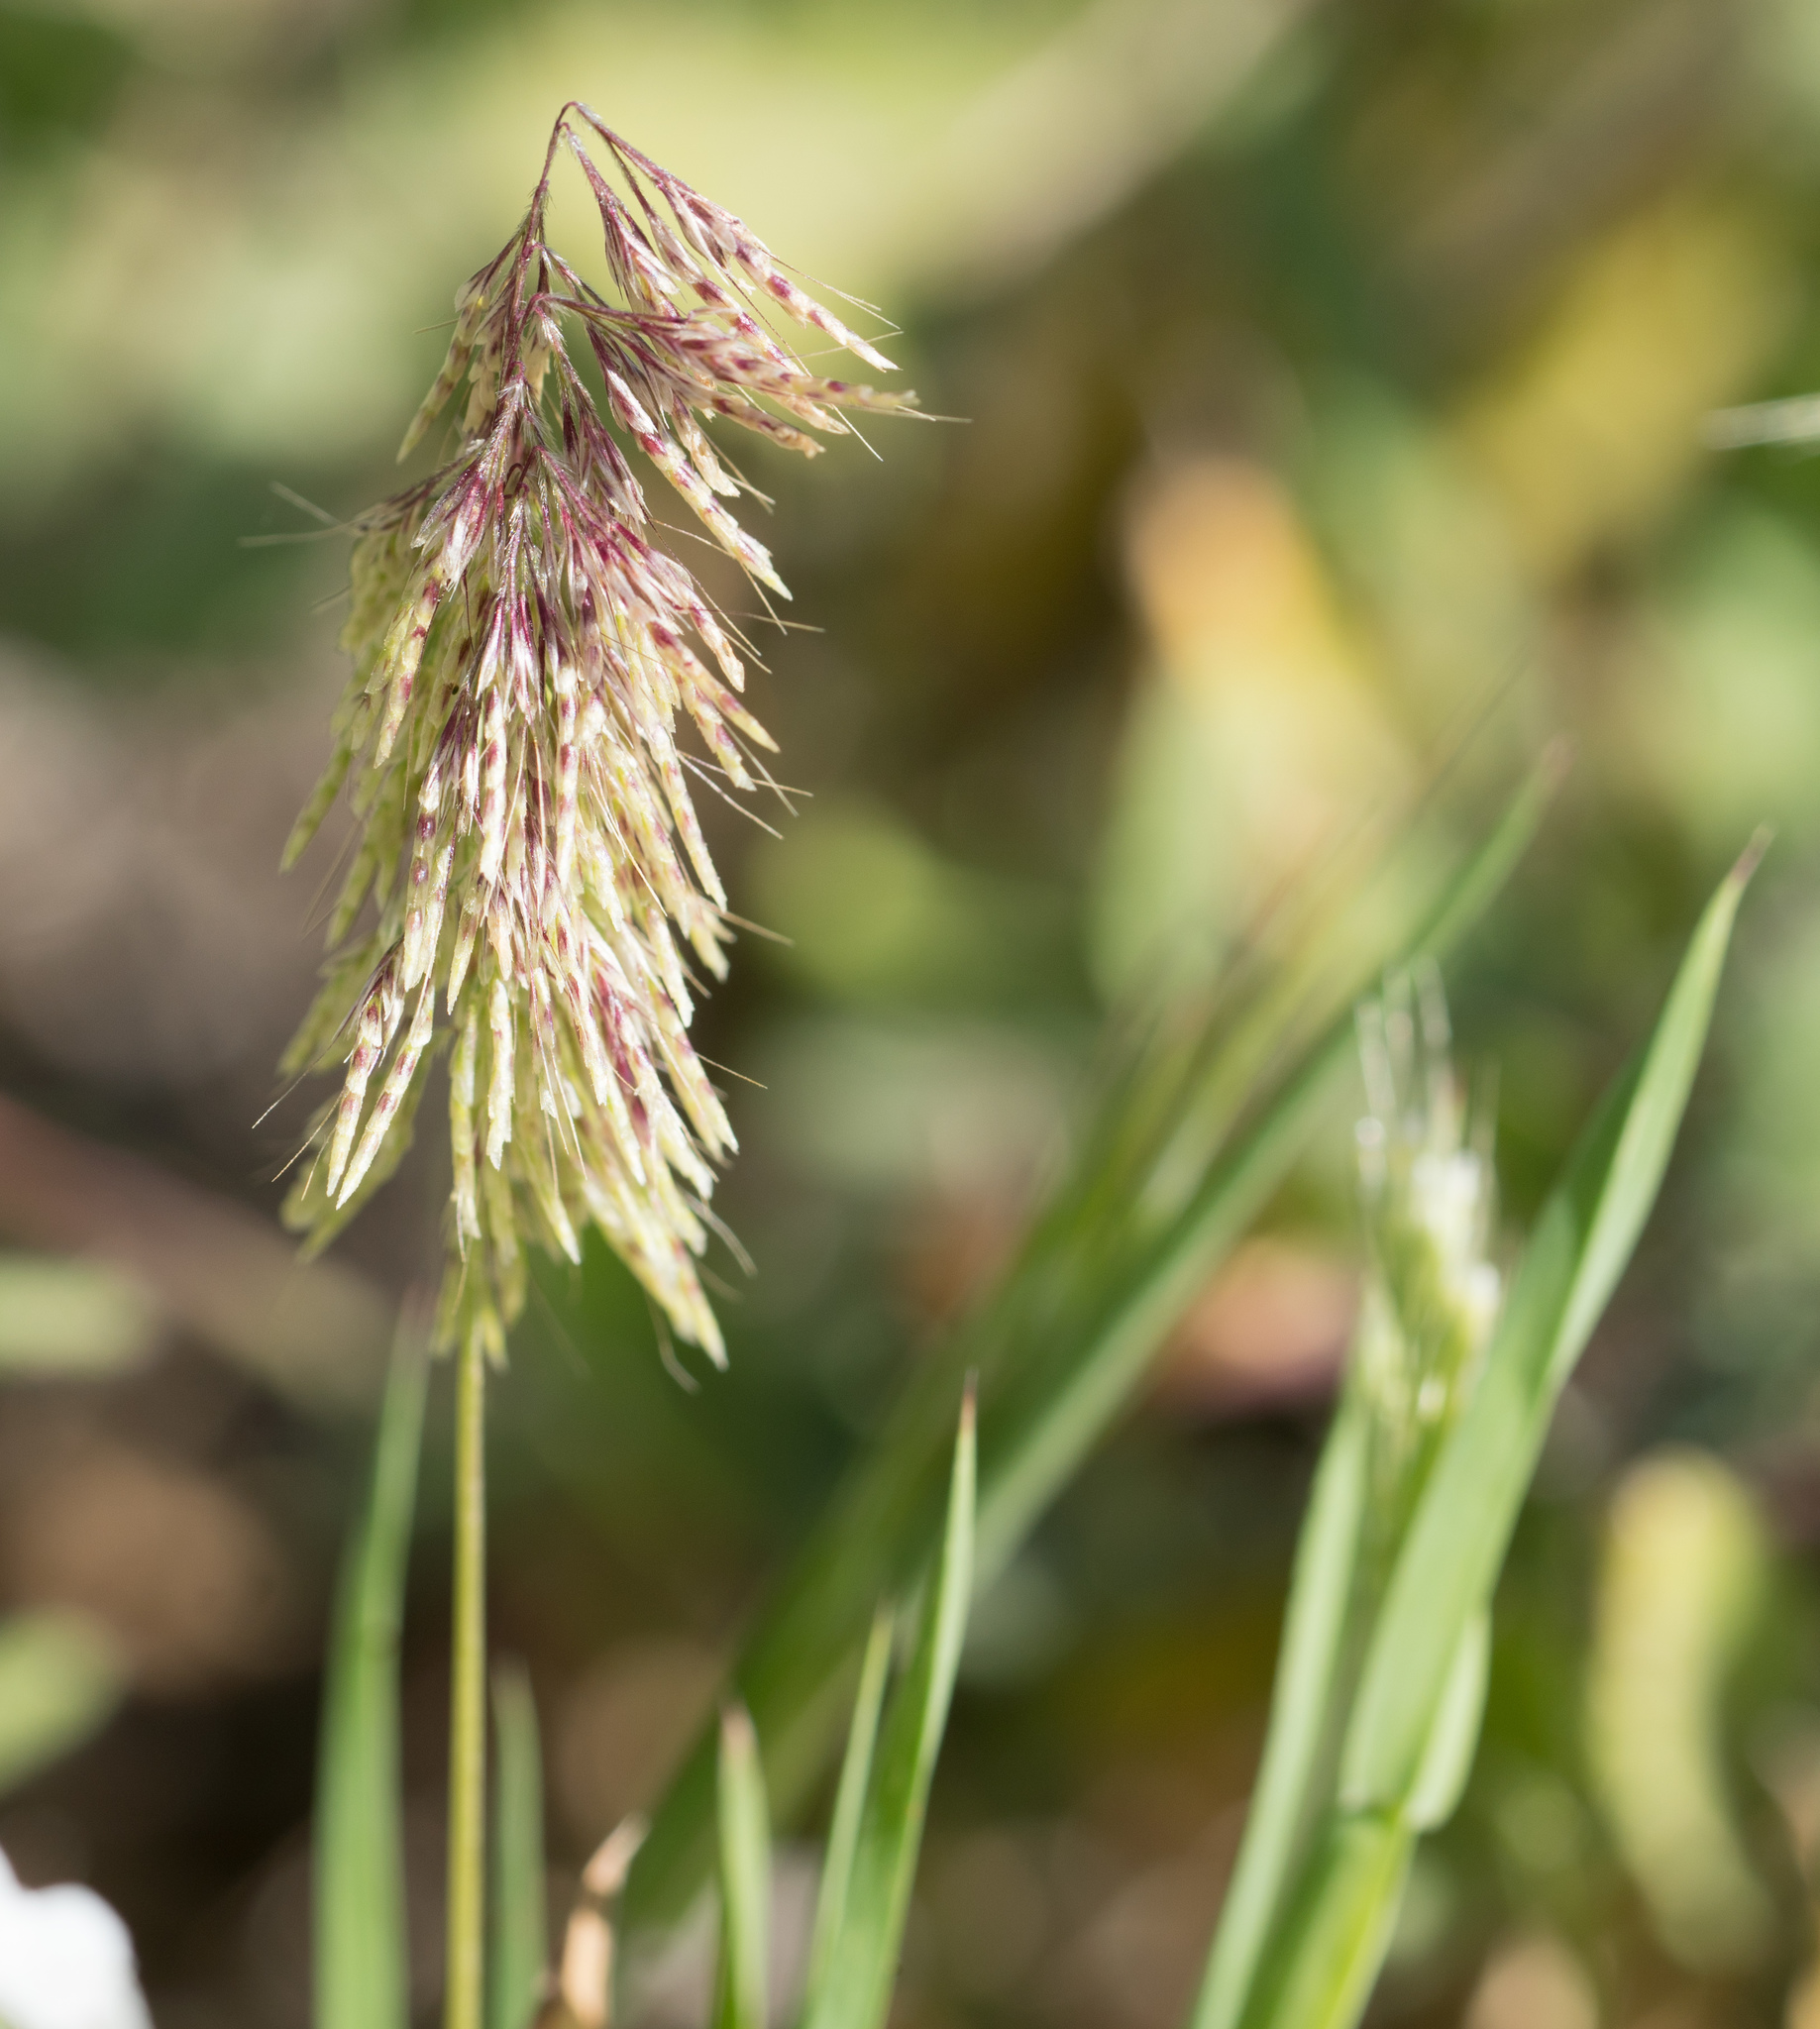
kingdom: Plantae
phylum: Tracheophyta
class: Liliopsida
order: Poales
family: Poaceae
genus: Lamarckia
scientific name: Lamarckia aurea
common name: Golden dog's-tail
